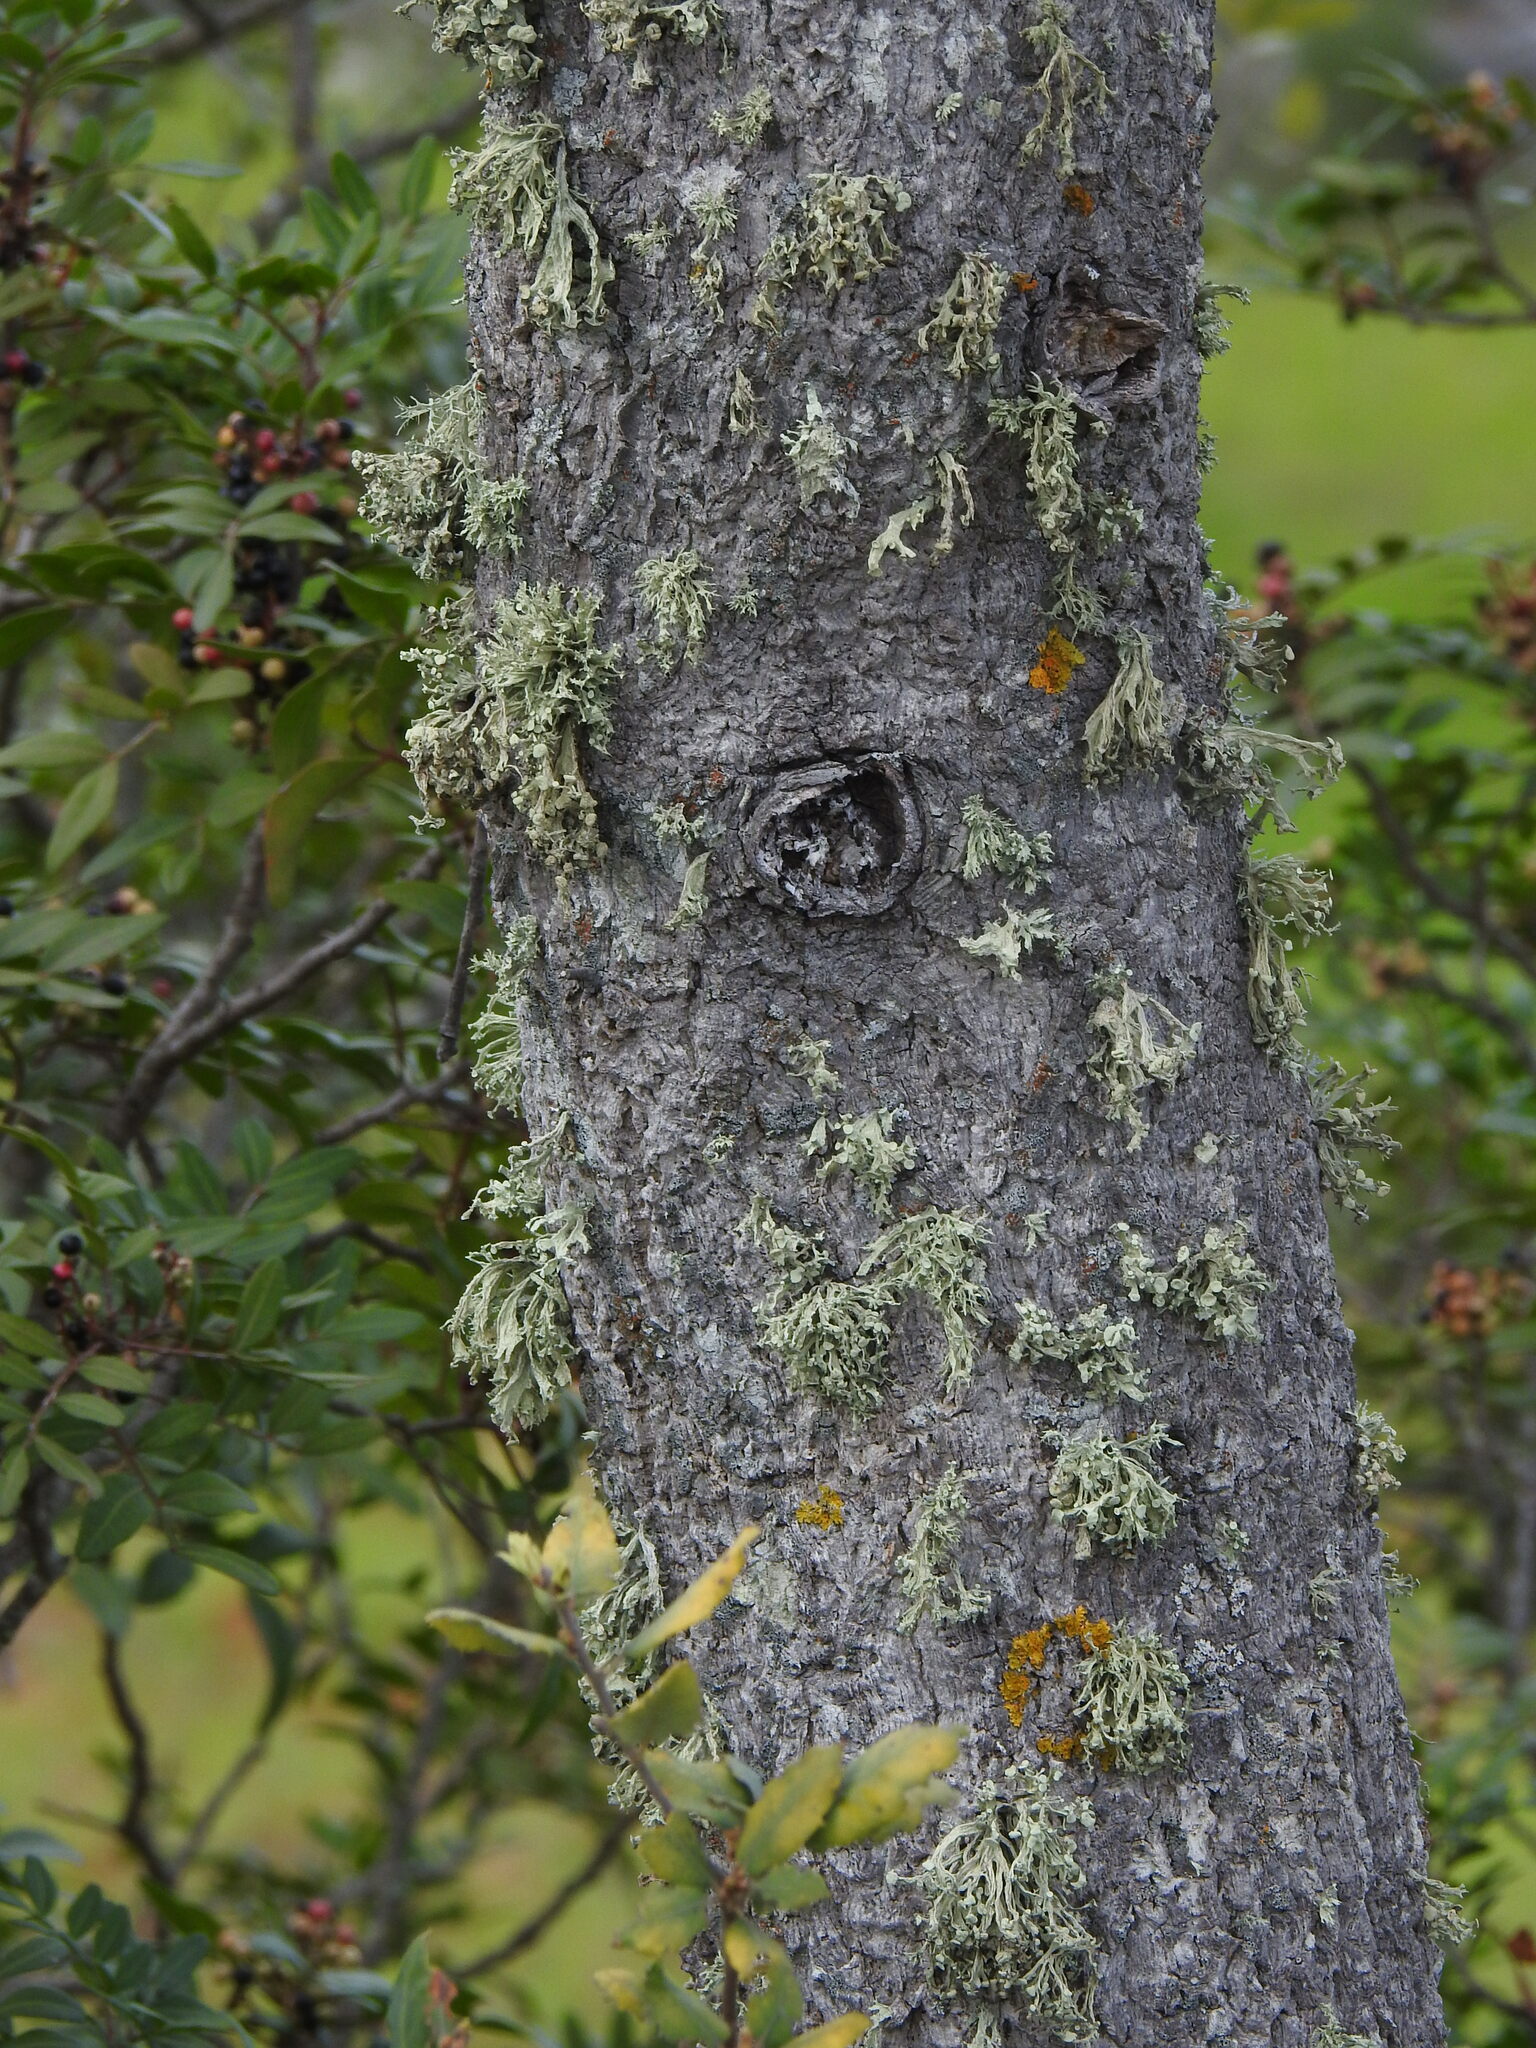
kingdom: Plantae
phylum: Tracheophyta
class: Magnoliopsida
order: Fagales
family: Fagaceae
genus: Quercus
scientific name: Quercus avellaniformis
